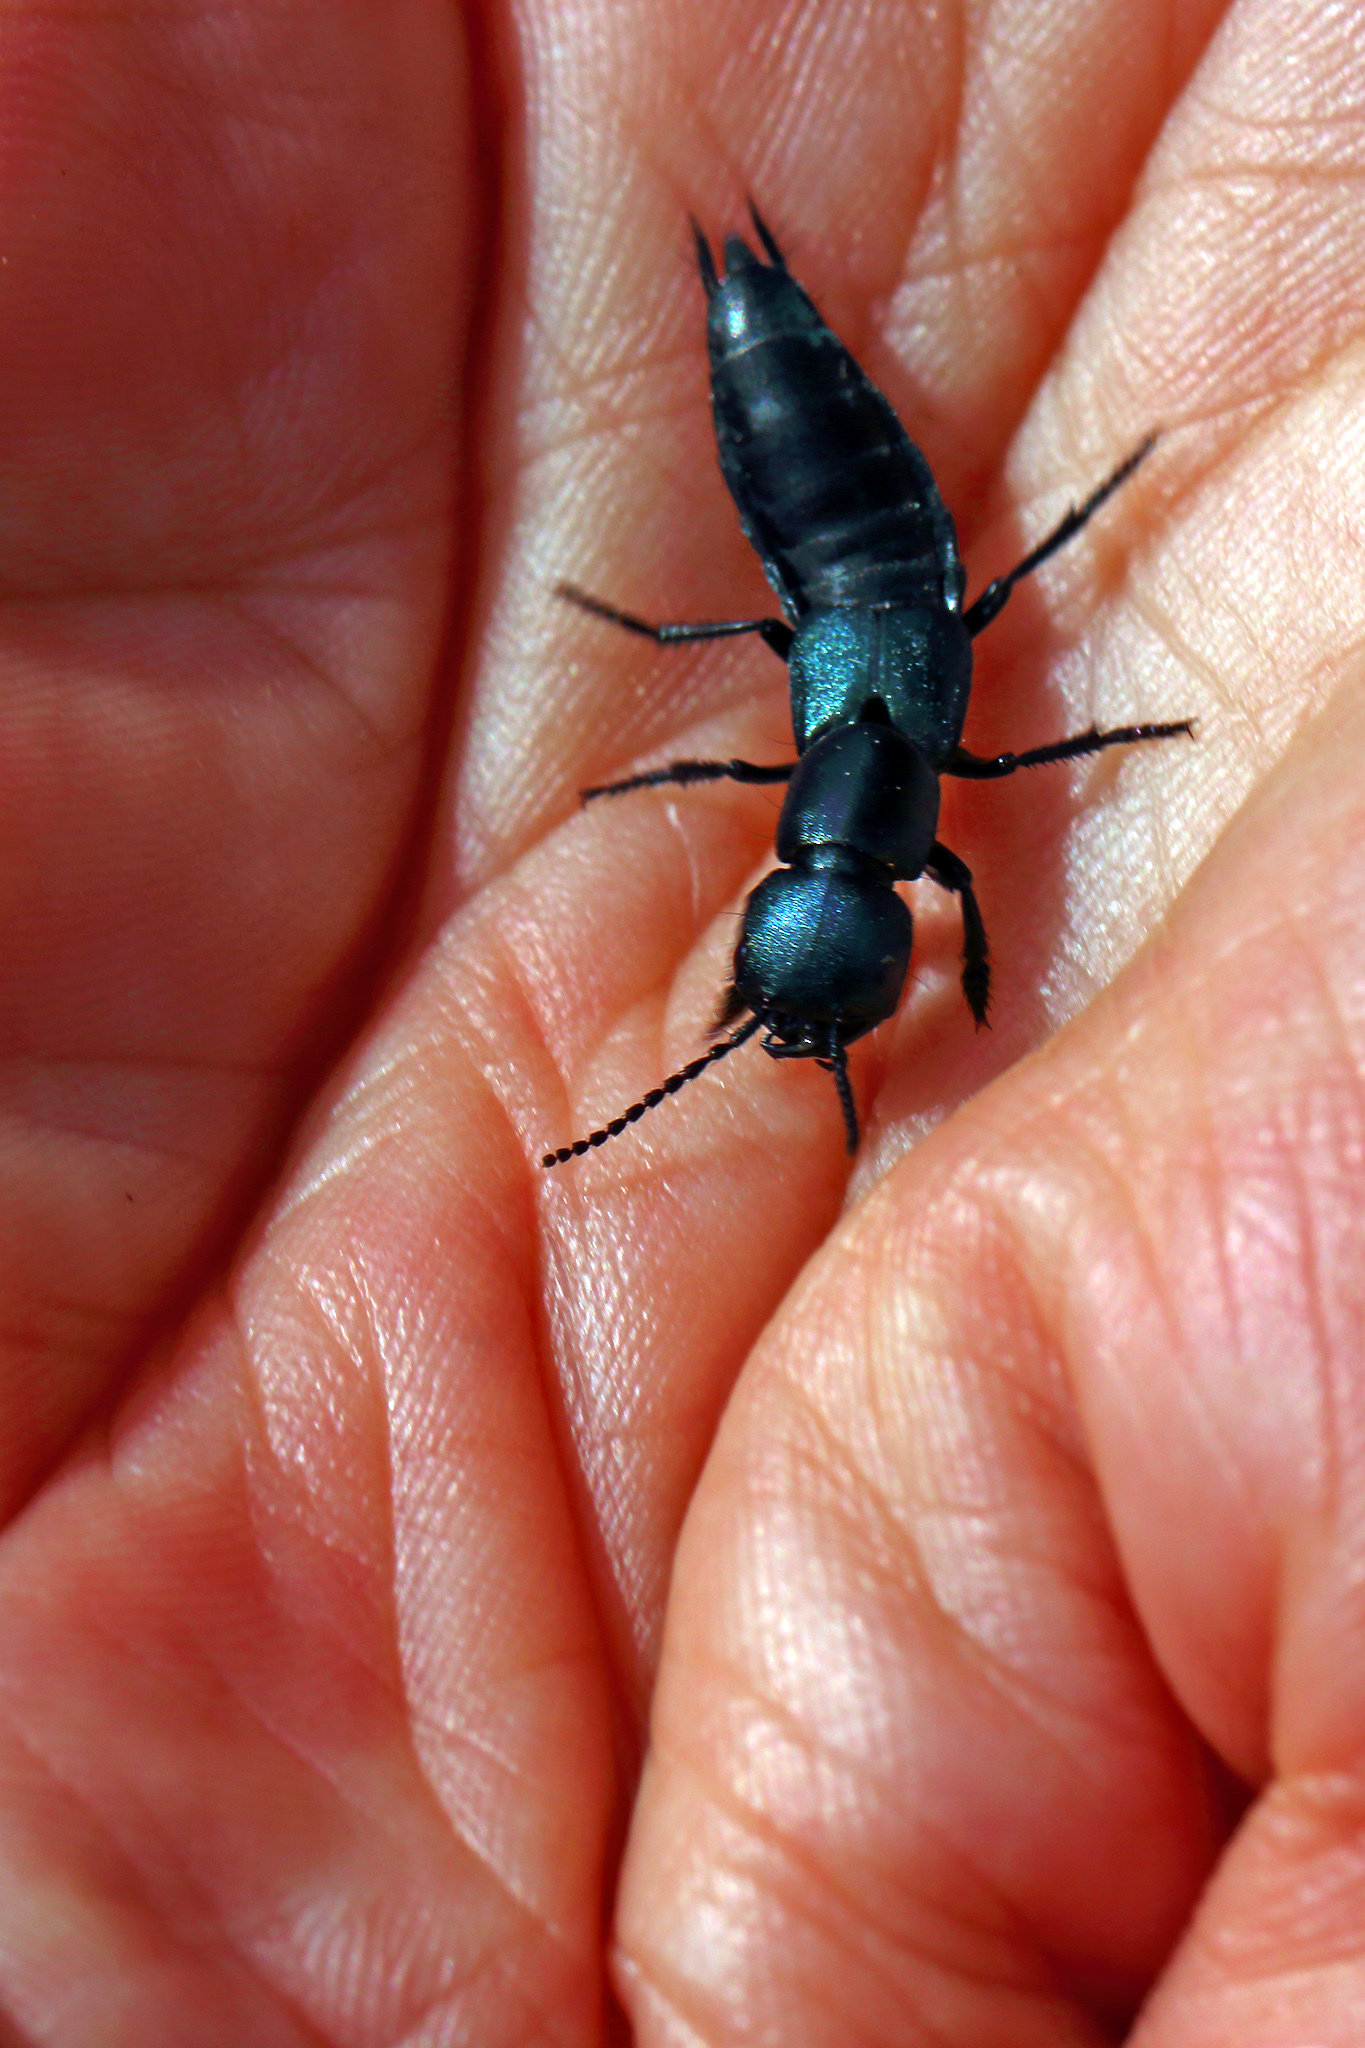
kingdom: Animalia
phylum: Arthropoda
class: Insecta
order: Coleoptera
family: Staphylinidae
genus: Ocypus
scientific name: Ocypus ophthalmicus
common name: Blue rove-beetle
